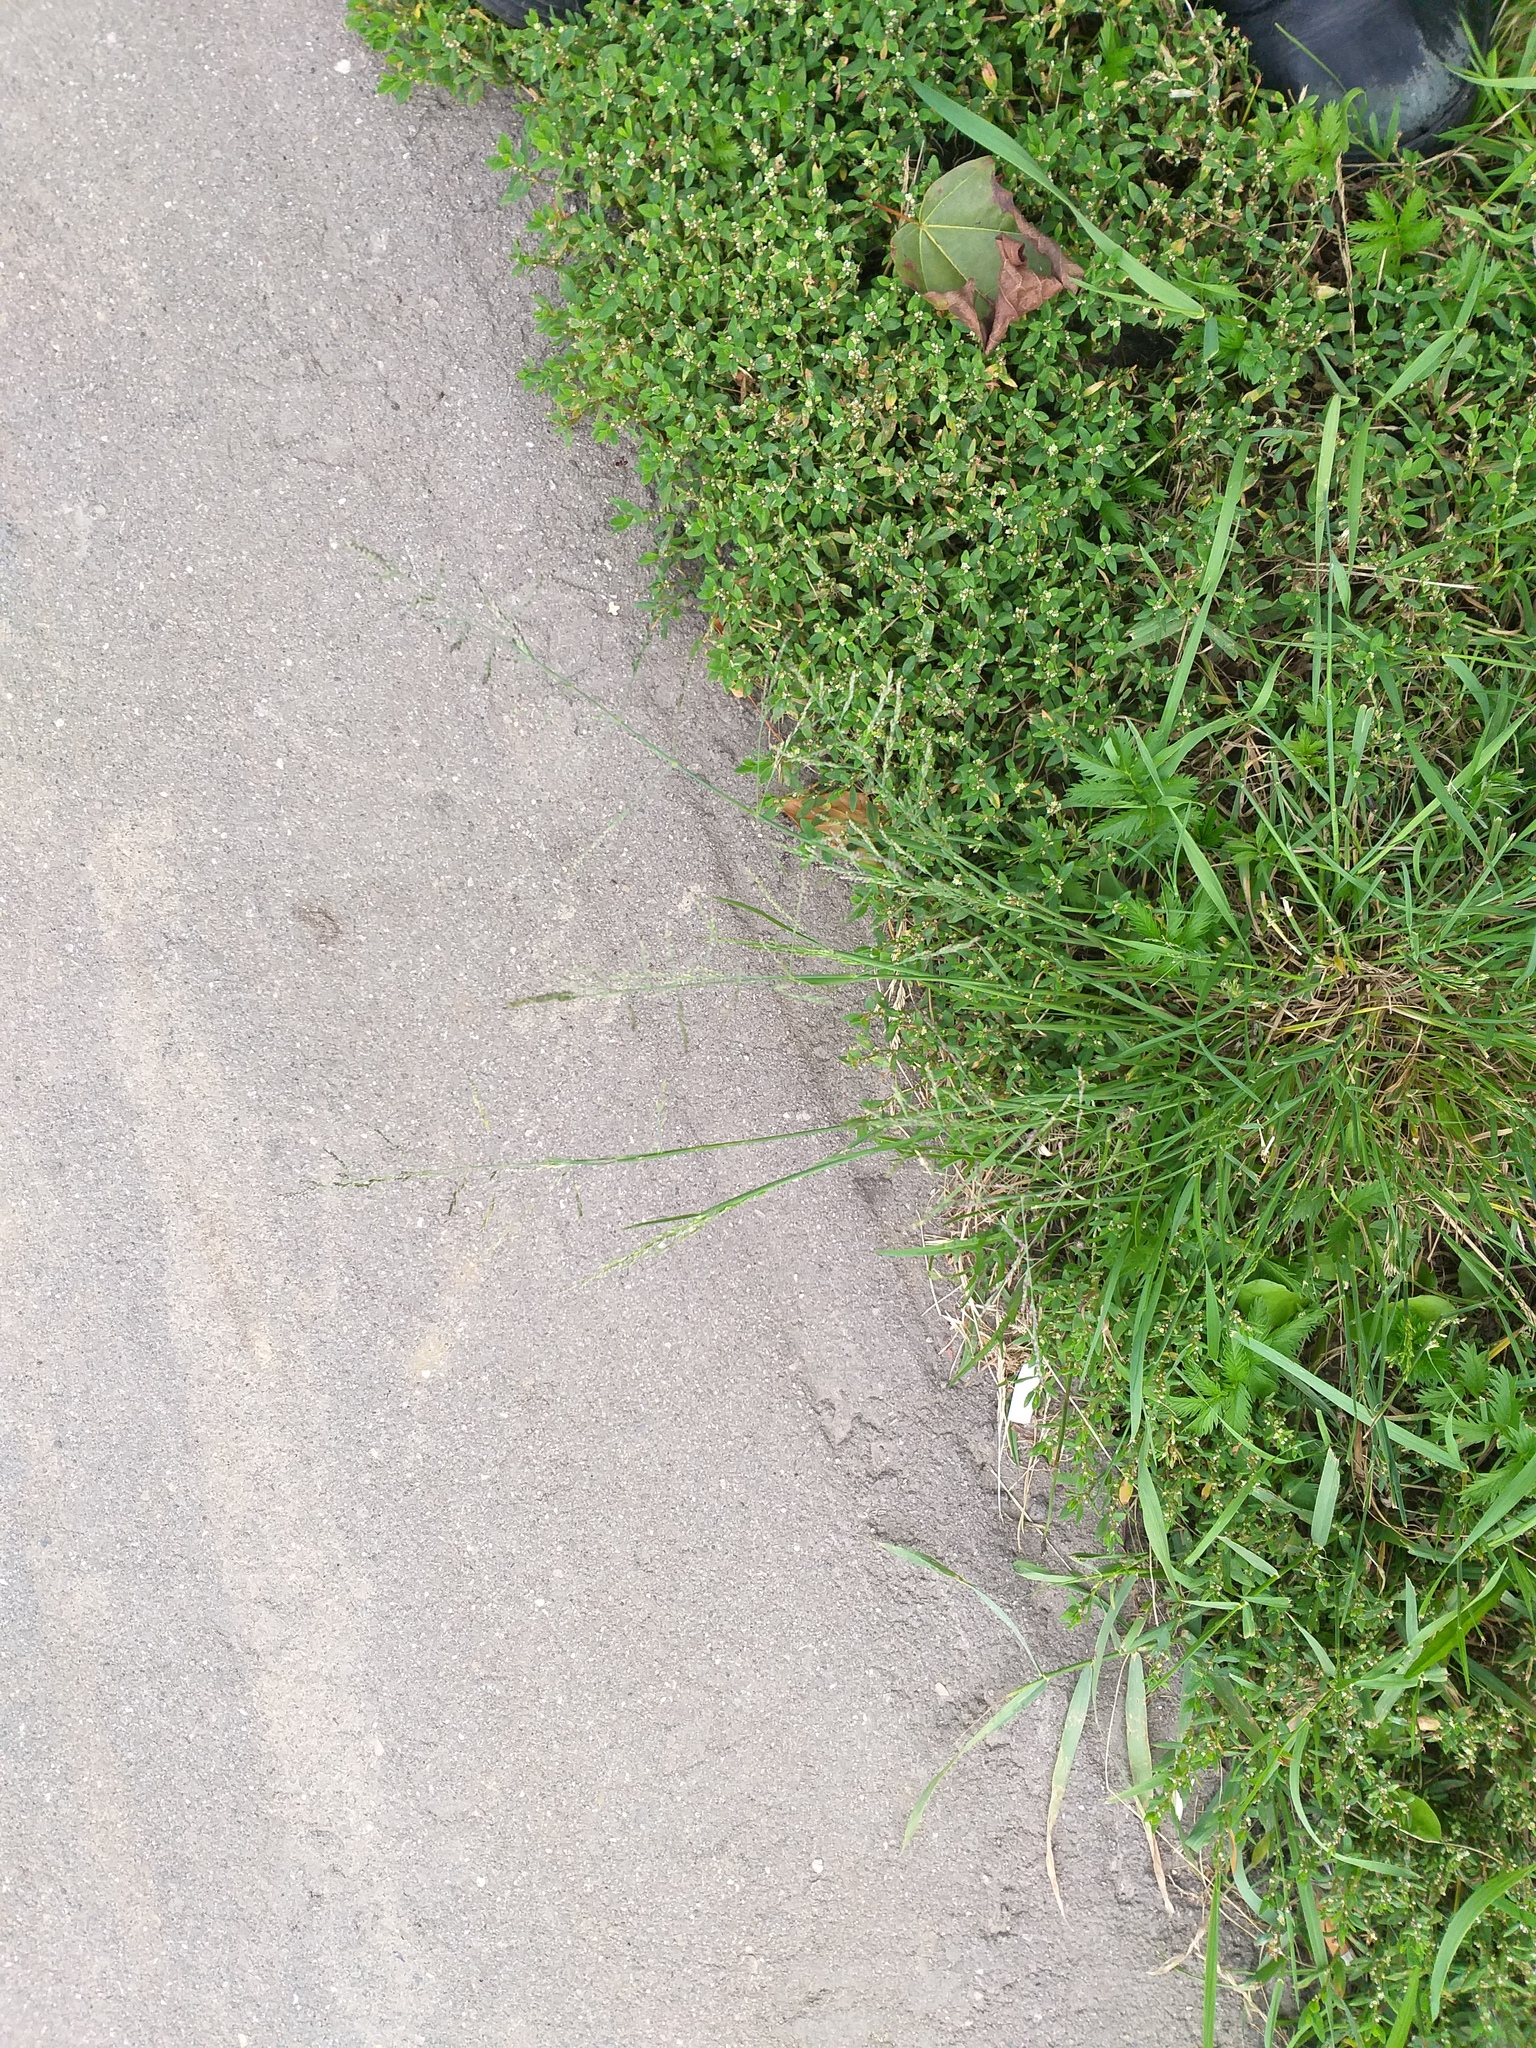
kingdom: Plantae
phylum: Tracheophyta
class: Liliopsida
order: Poales
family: Poaceae
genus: Puccinellia
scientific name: Puccinellia distans
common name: Weeping alkaligrass
